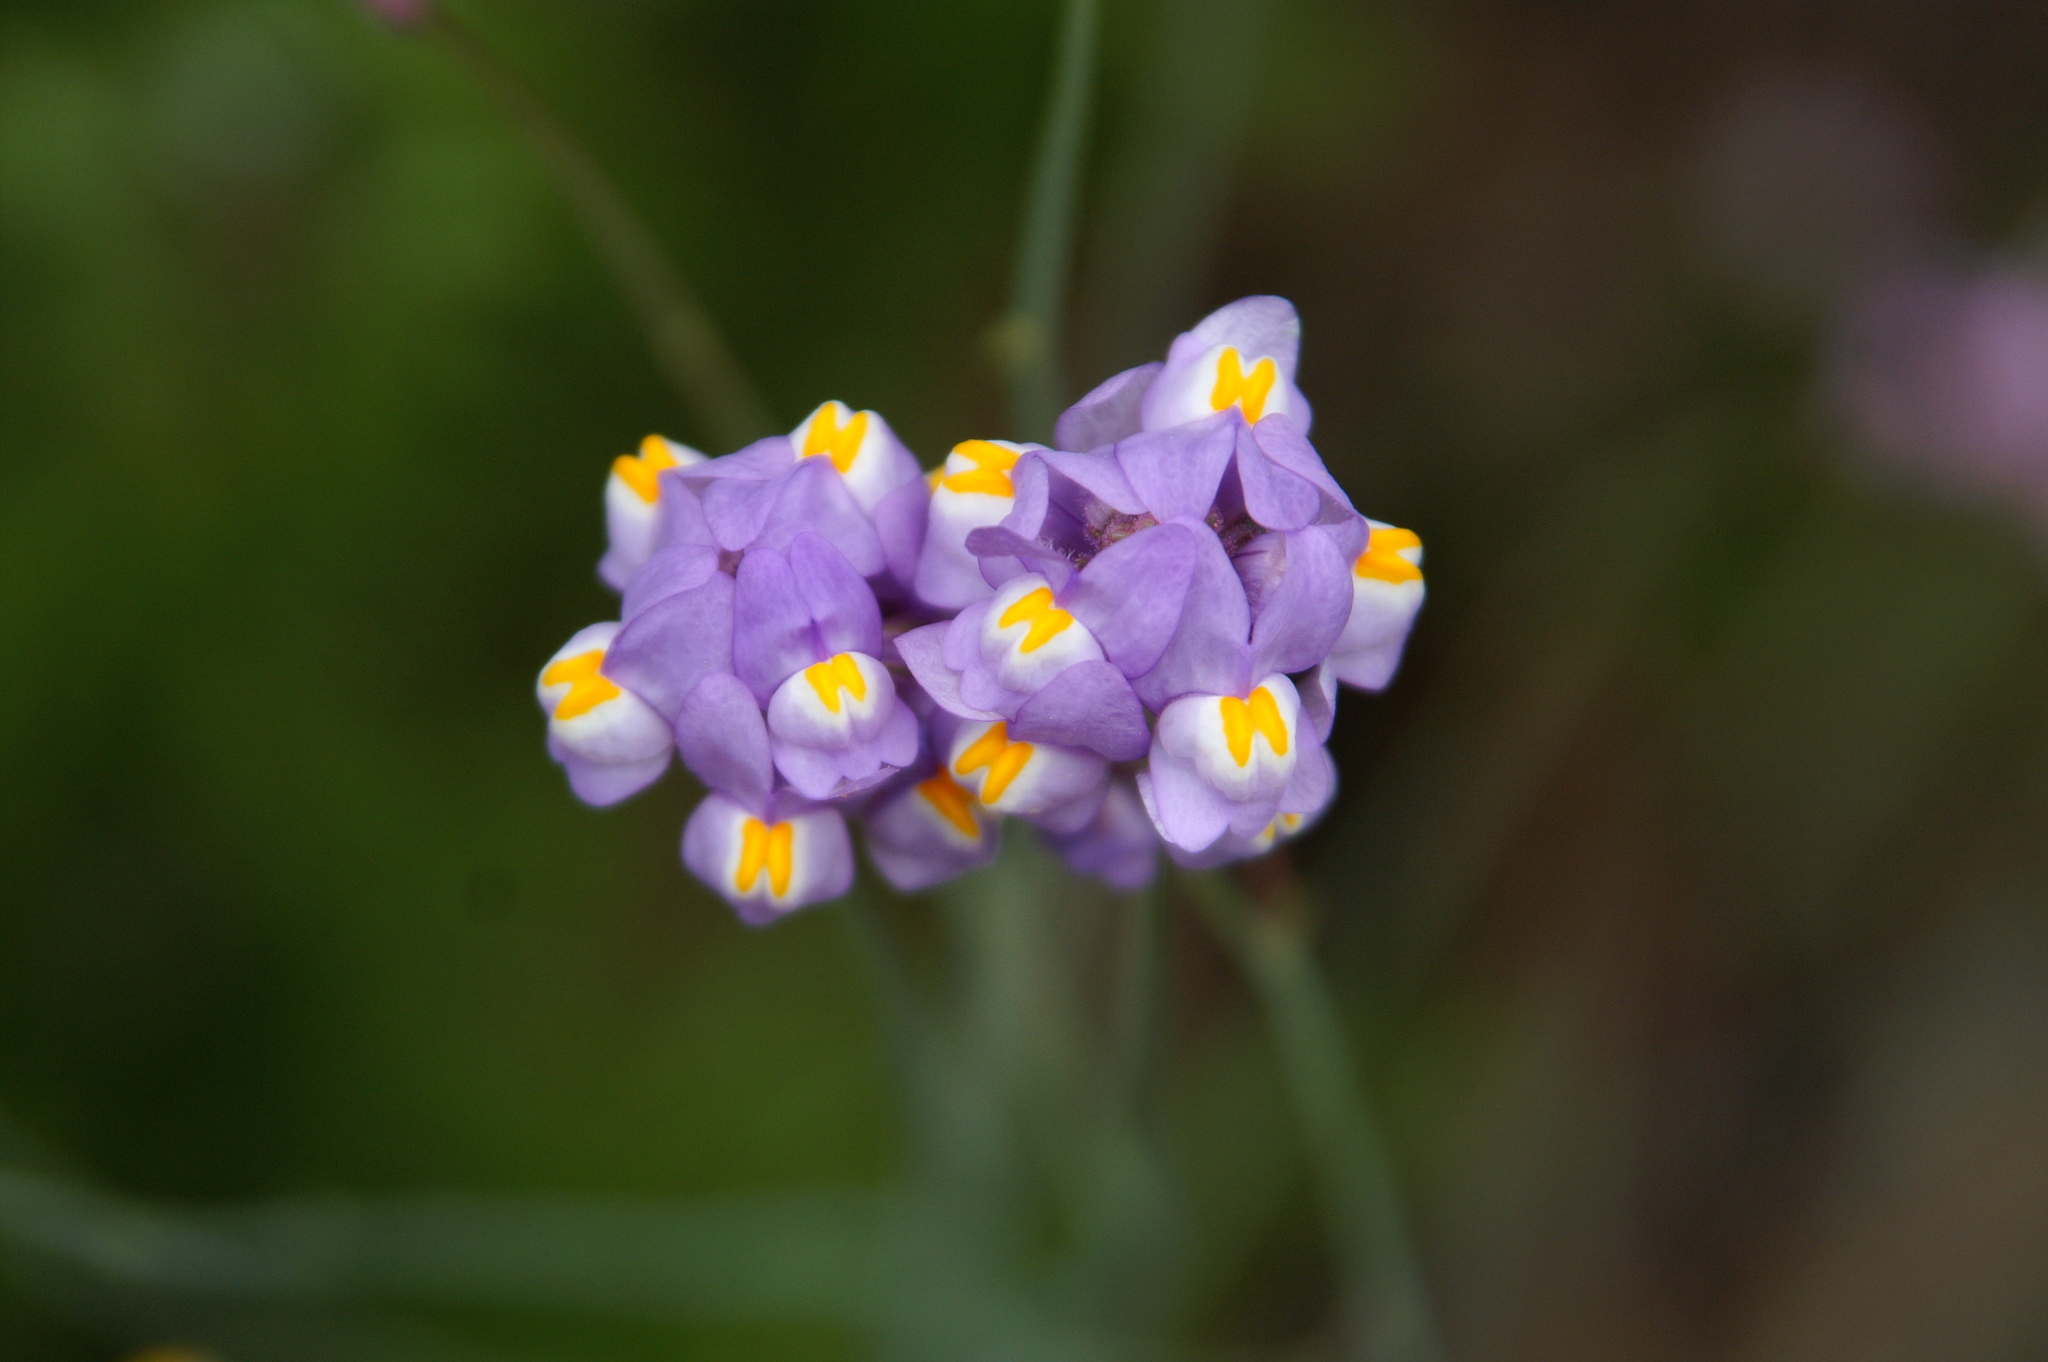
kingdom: Plantae
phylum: Tracheophyta
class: Magnoliopsida
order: Lamiales
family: Plantaginaceae
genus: Linaria
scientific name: Linaria clementei
